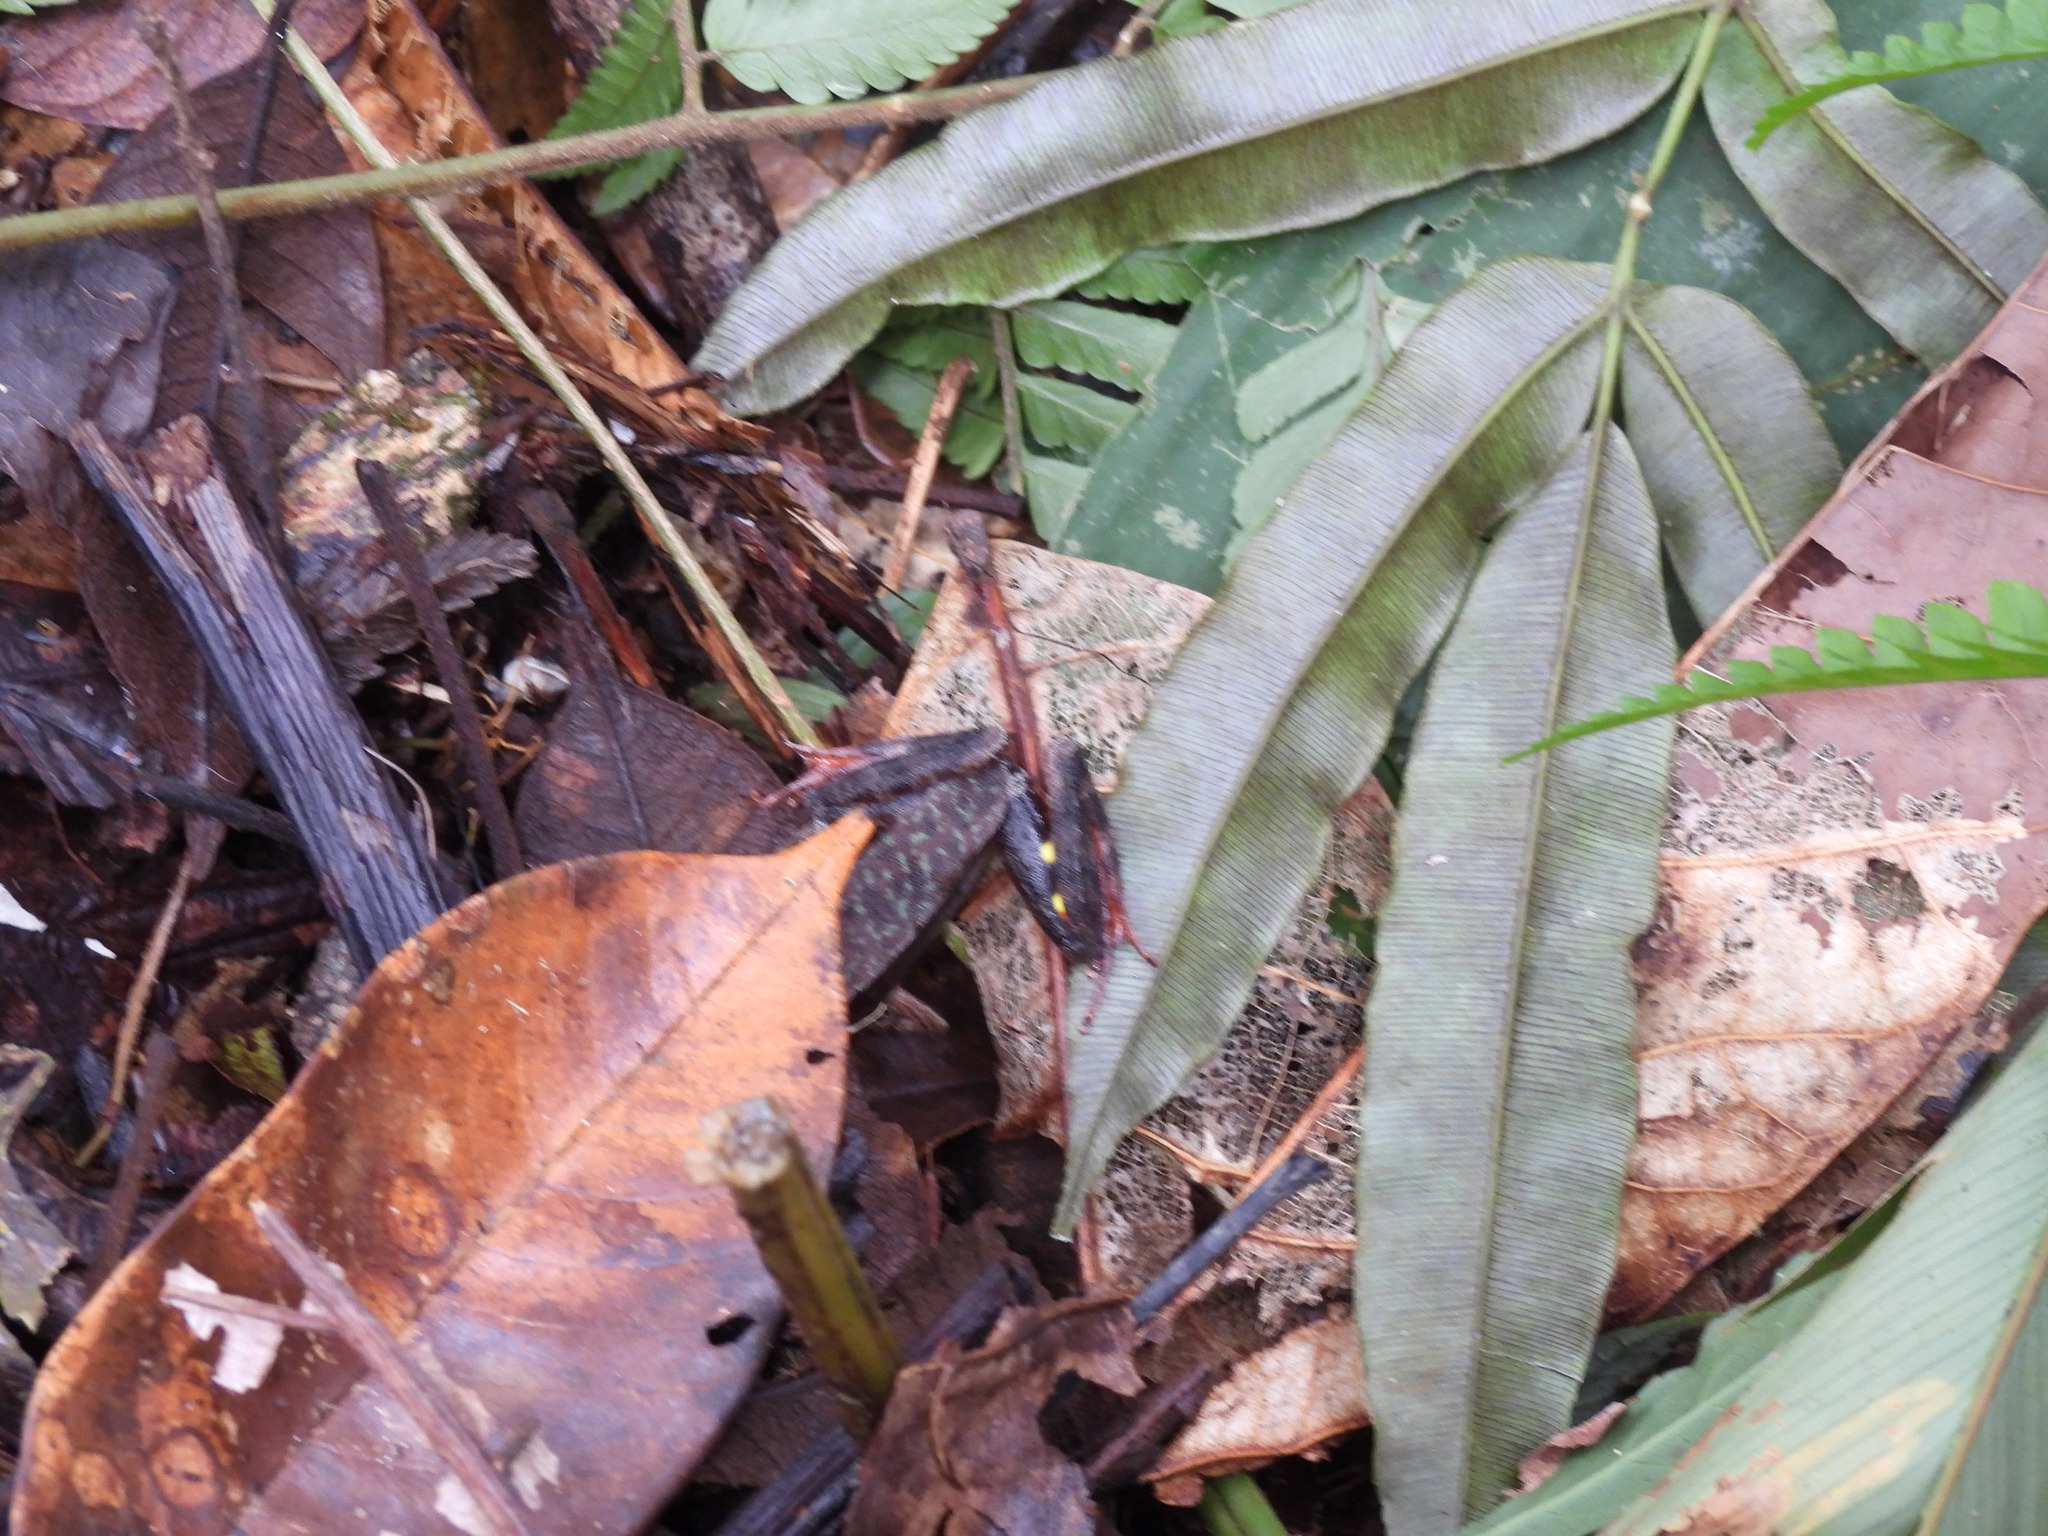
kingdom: Animalia
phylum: Chordata
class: Amphibia
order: Anura
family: Ranidae
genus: Lithobates
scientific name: Lithobates warszewitschii
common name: Warszewitsch's frog
